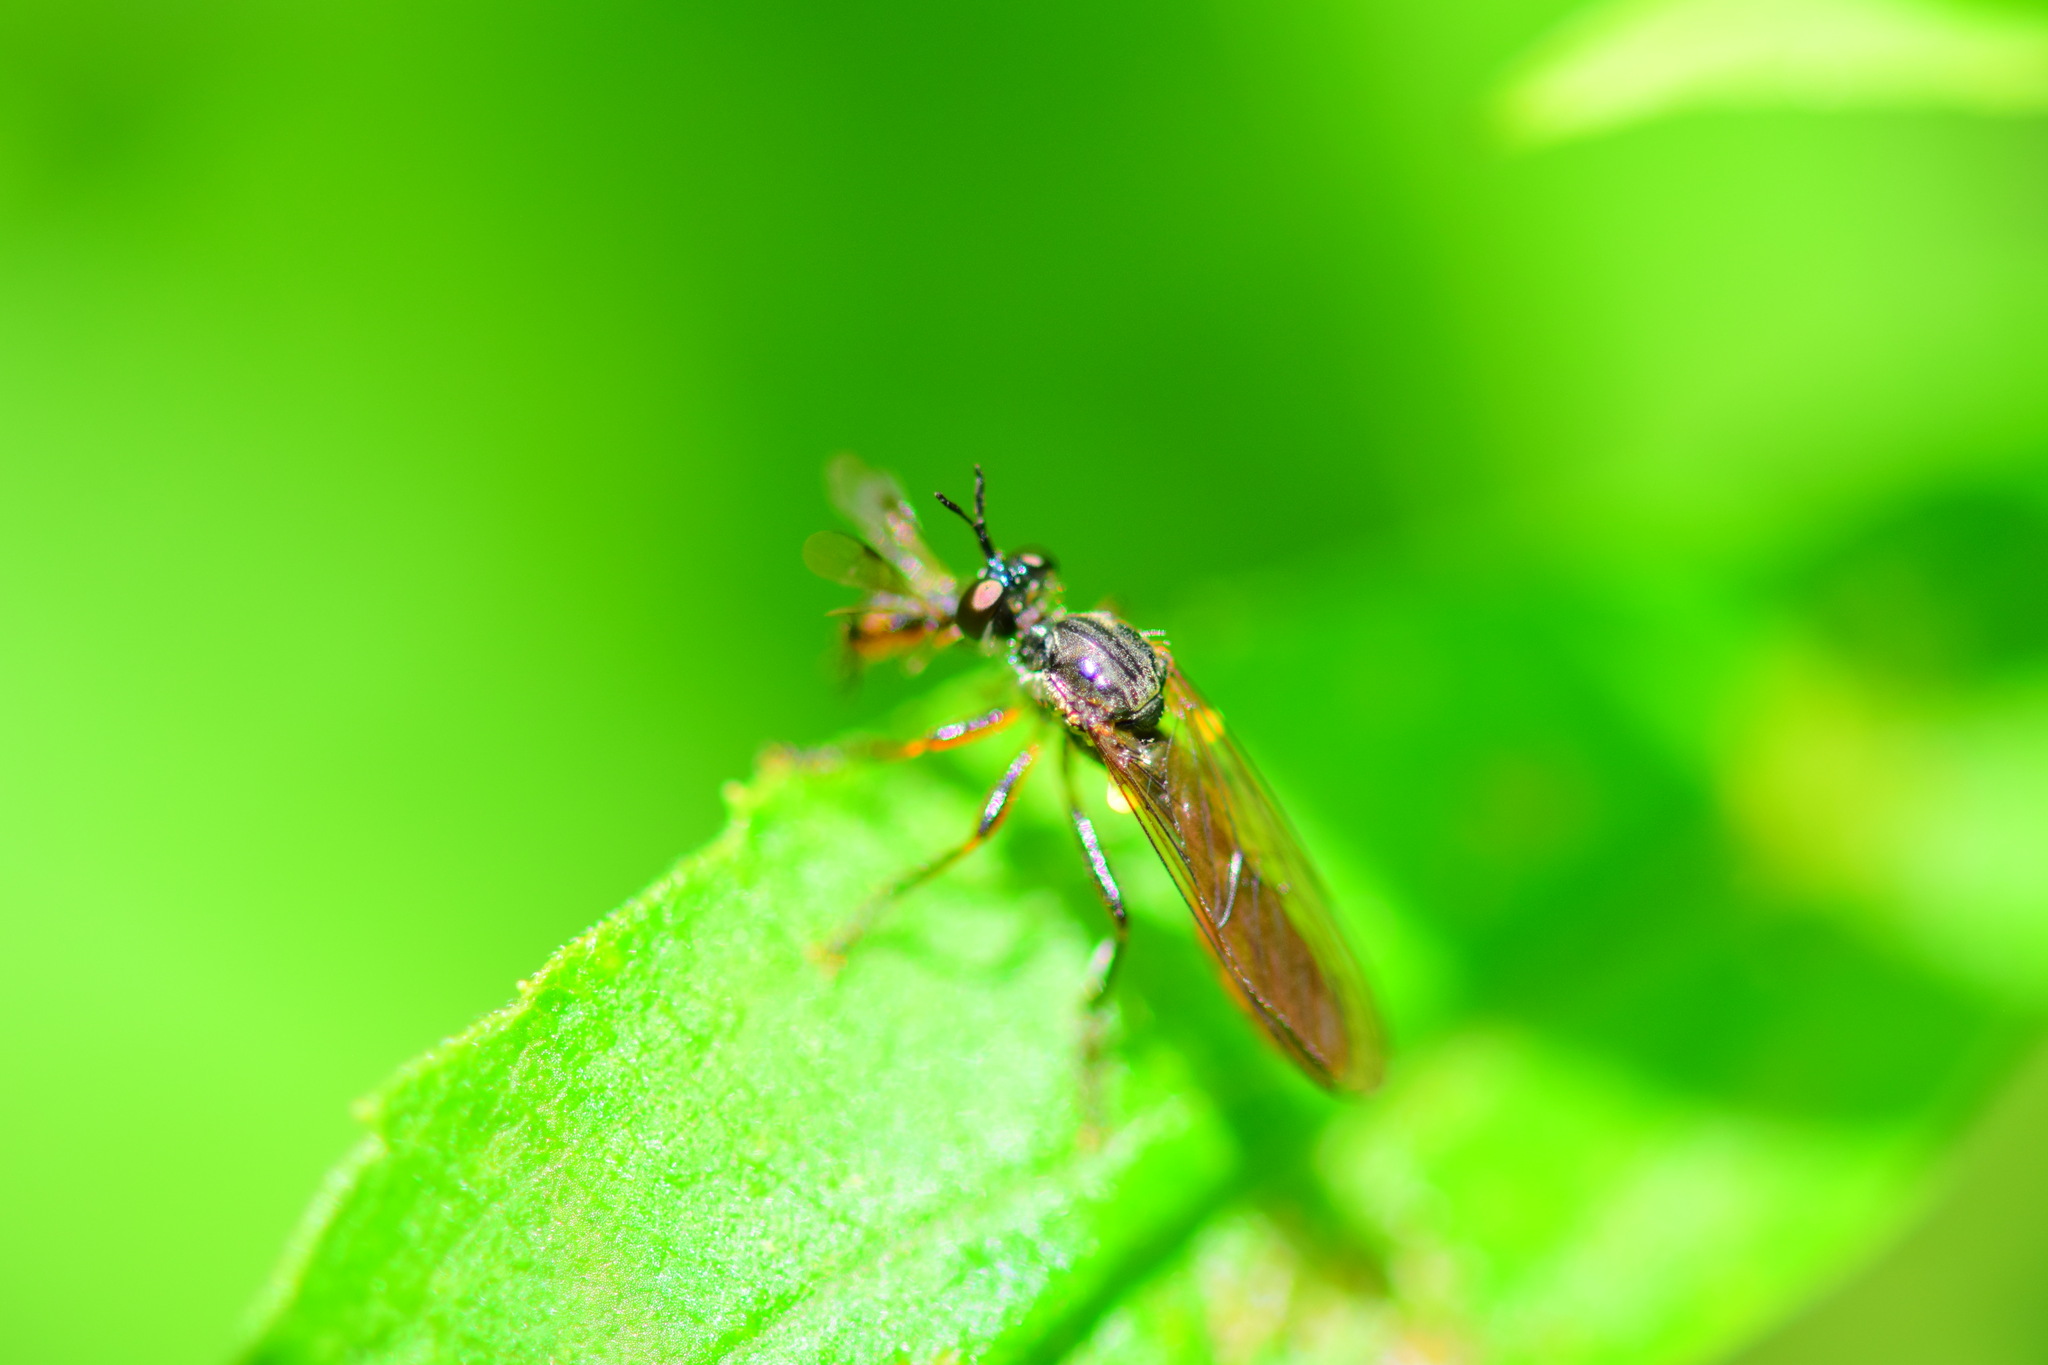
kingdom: Animalia
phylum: Arthropoda
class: Insecta
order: Diptera
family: Asilidae
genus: Dioctria
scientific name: Dioctria hyalipennis
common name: Stripe-legged robberfly
